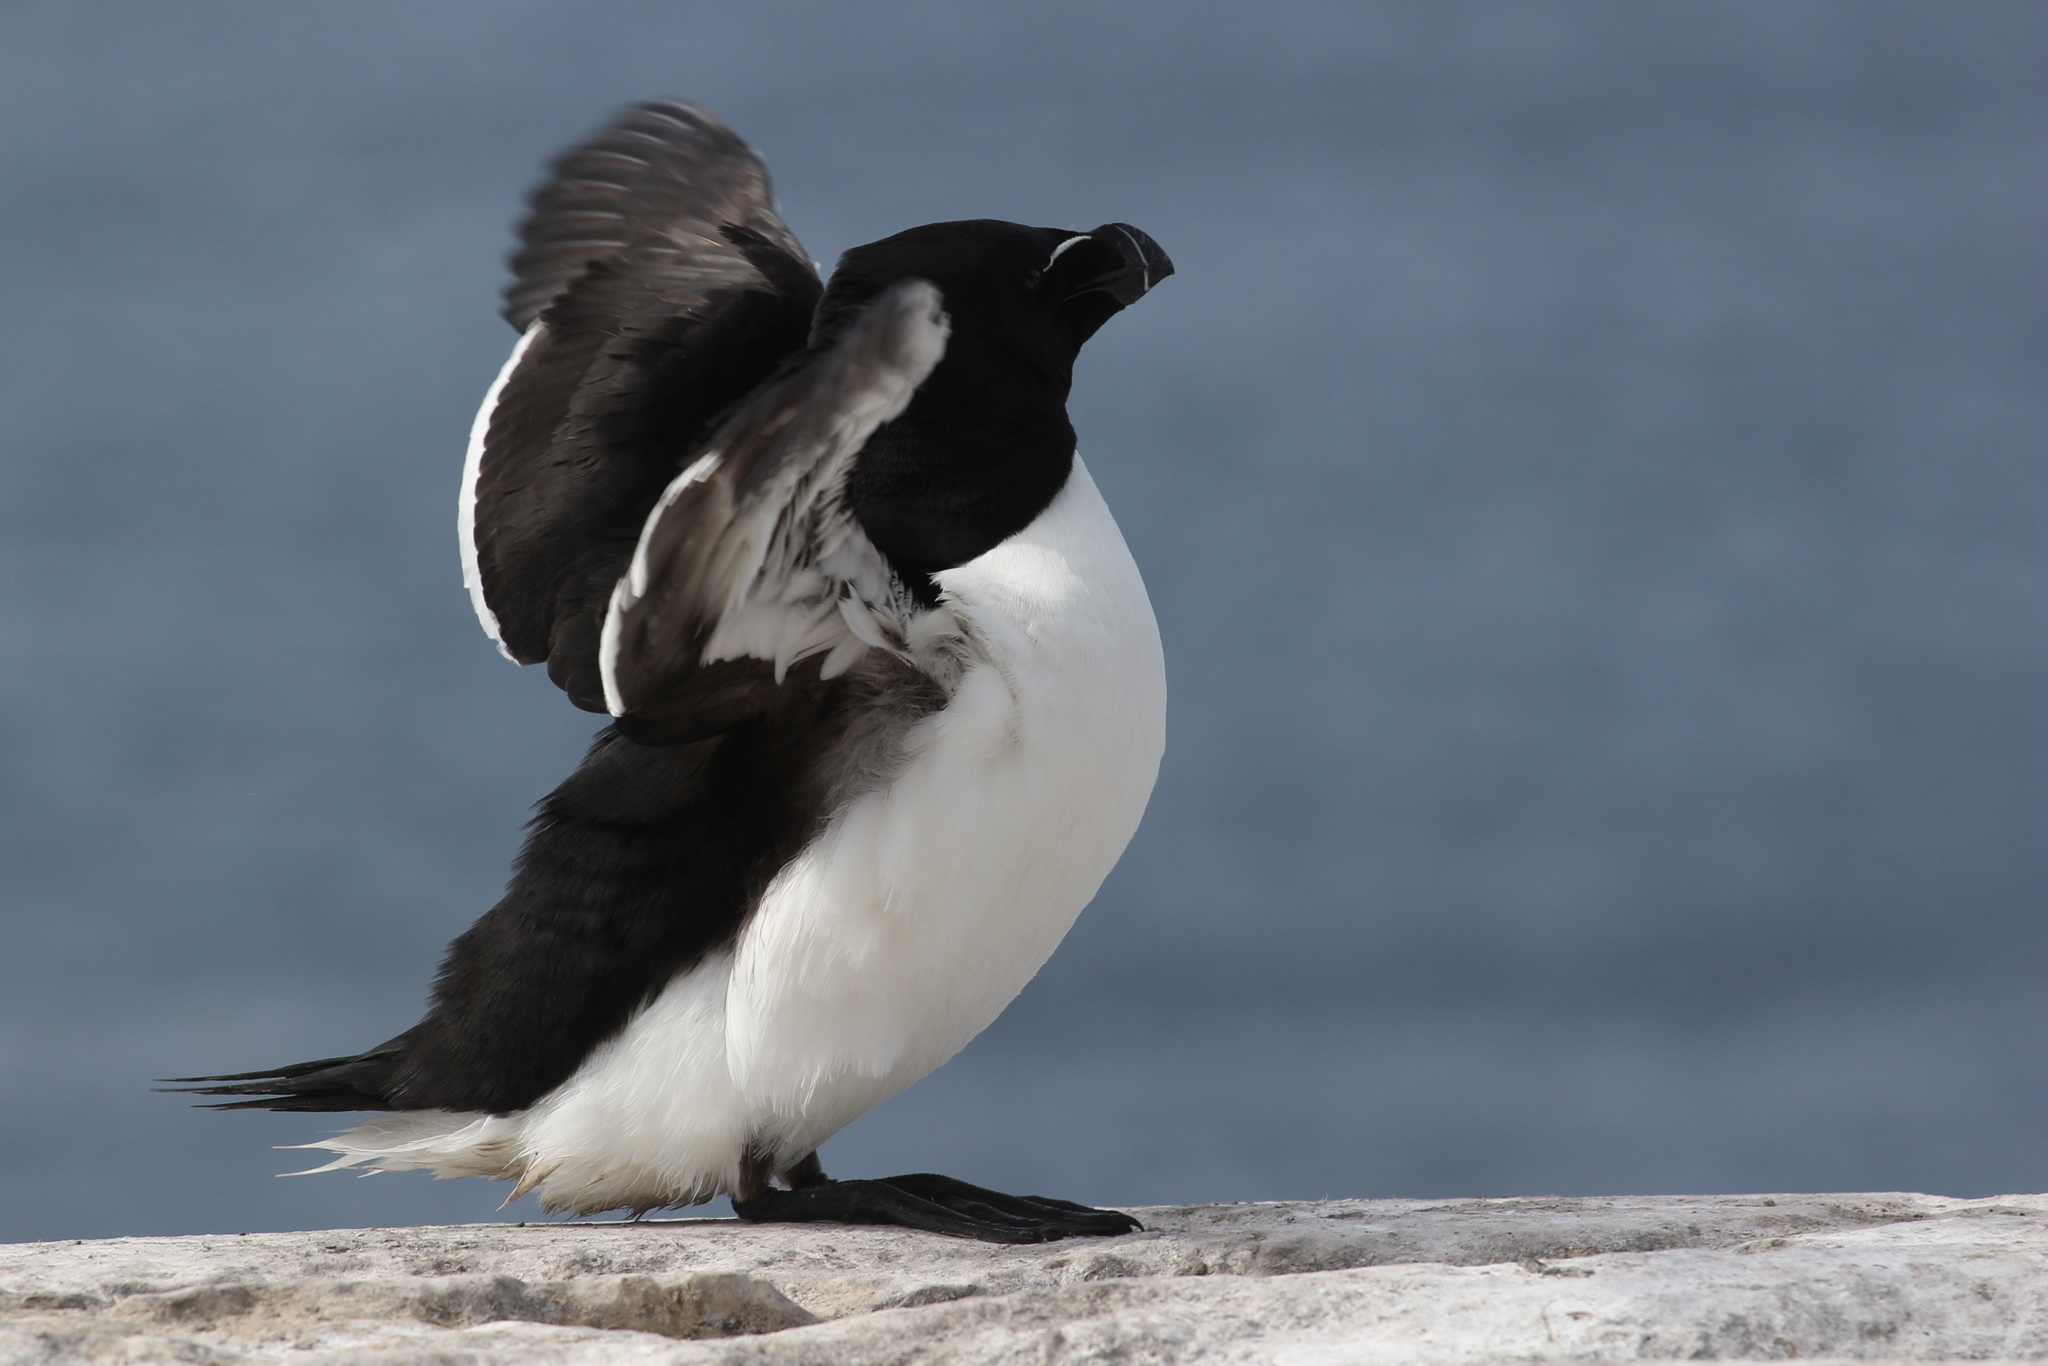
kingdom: Animalia
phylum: Chordata
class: Aves
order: Charadriiformes
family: Alcidae
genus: Alca
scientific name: Alca torda
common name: Razorbill
